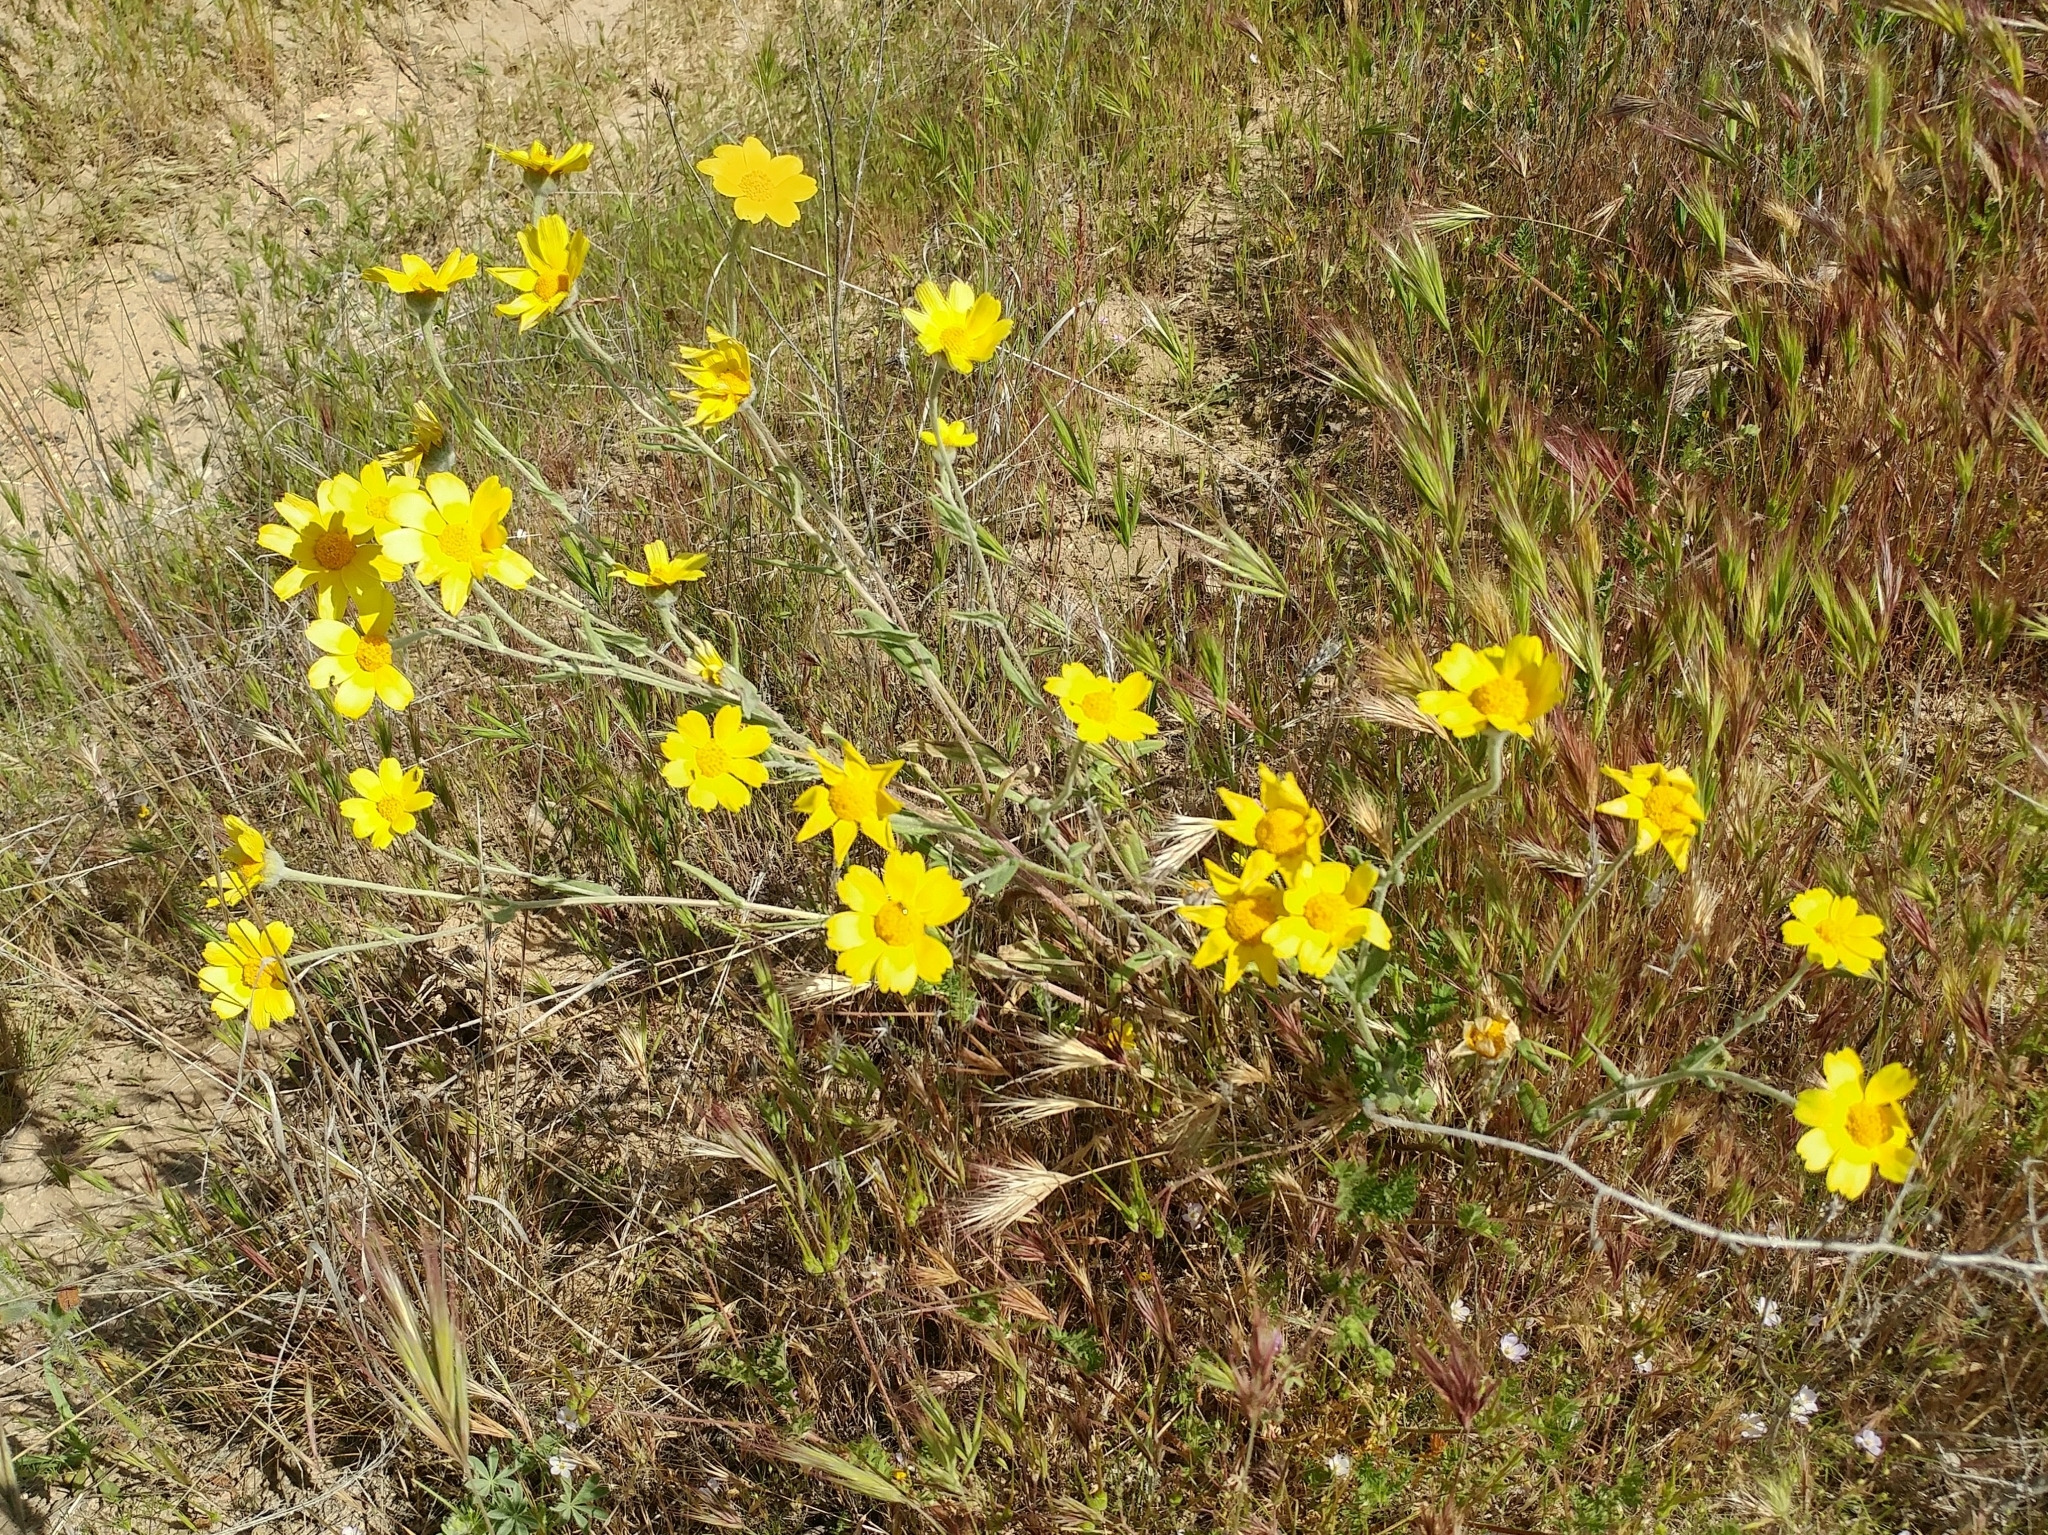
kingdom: Plantae
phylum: Tracheophyta
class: Magnoliopsida
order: Asterales
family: Asteraceae
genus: Monolopia
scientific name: Monolopia lanceolata
